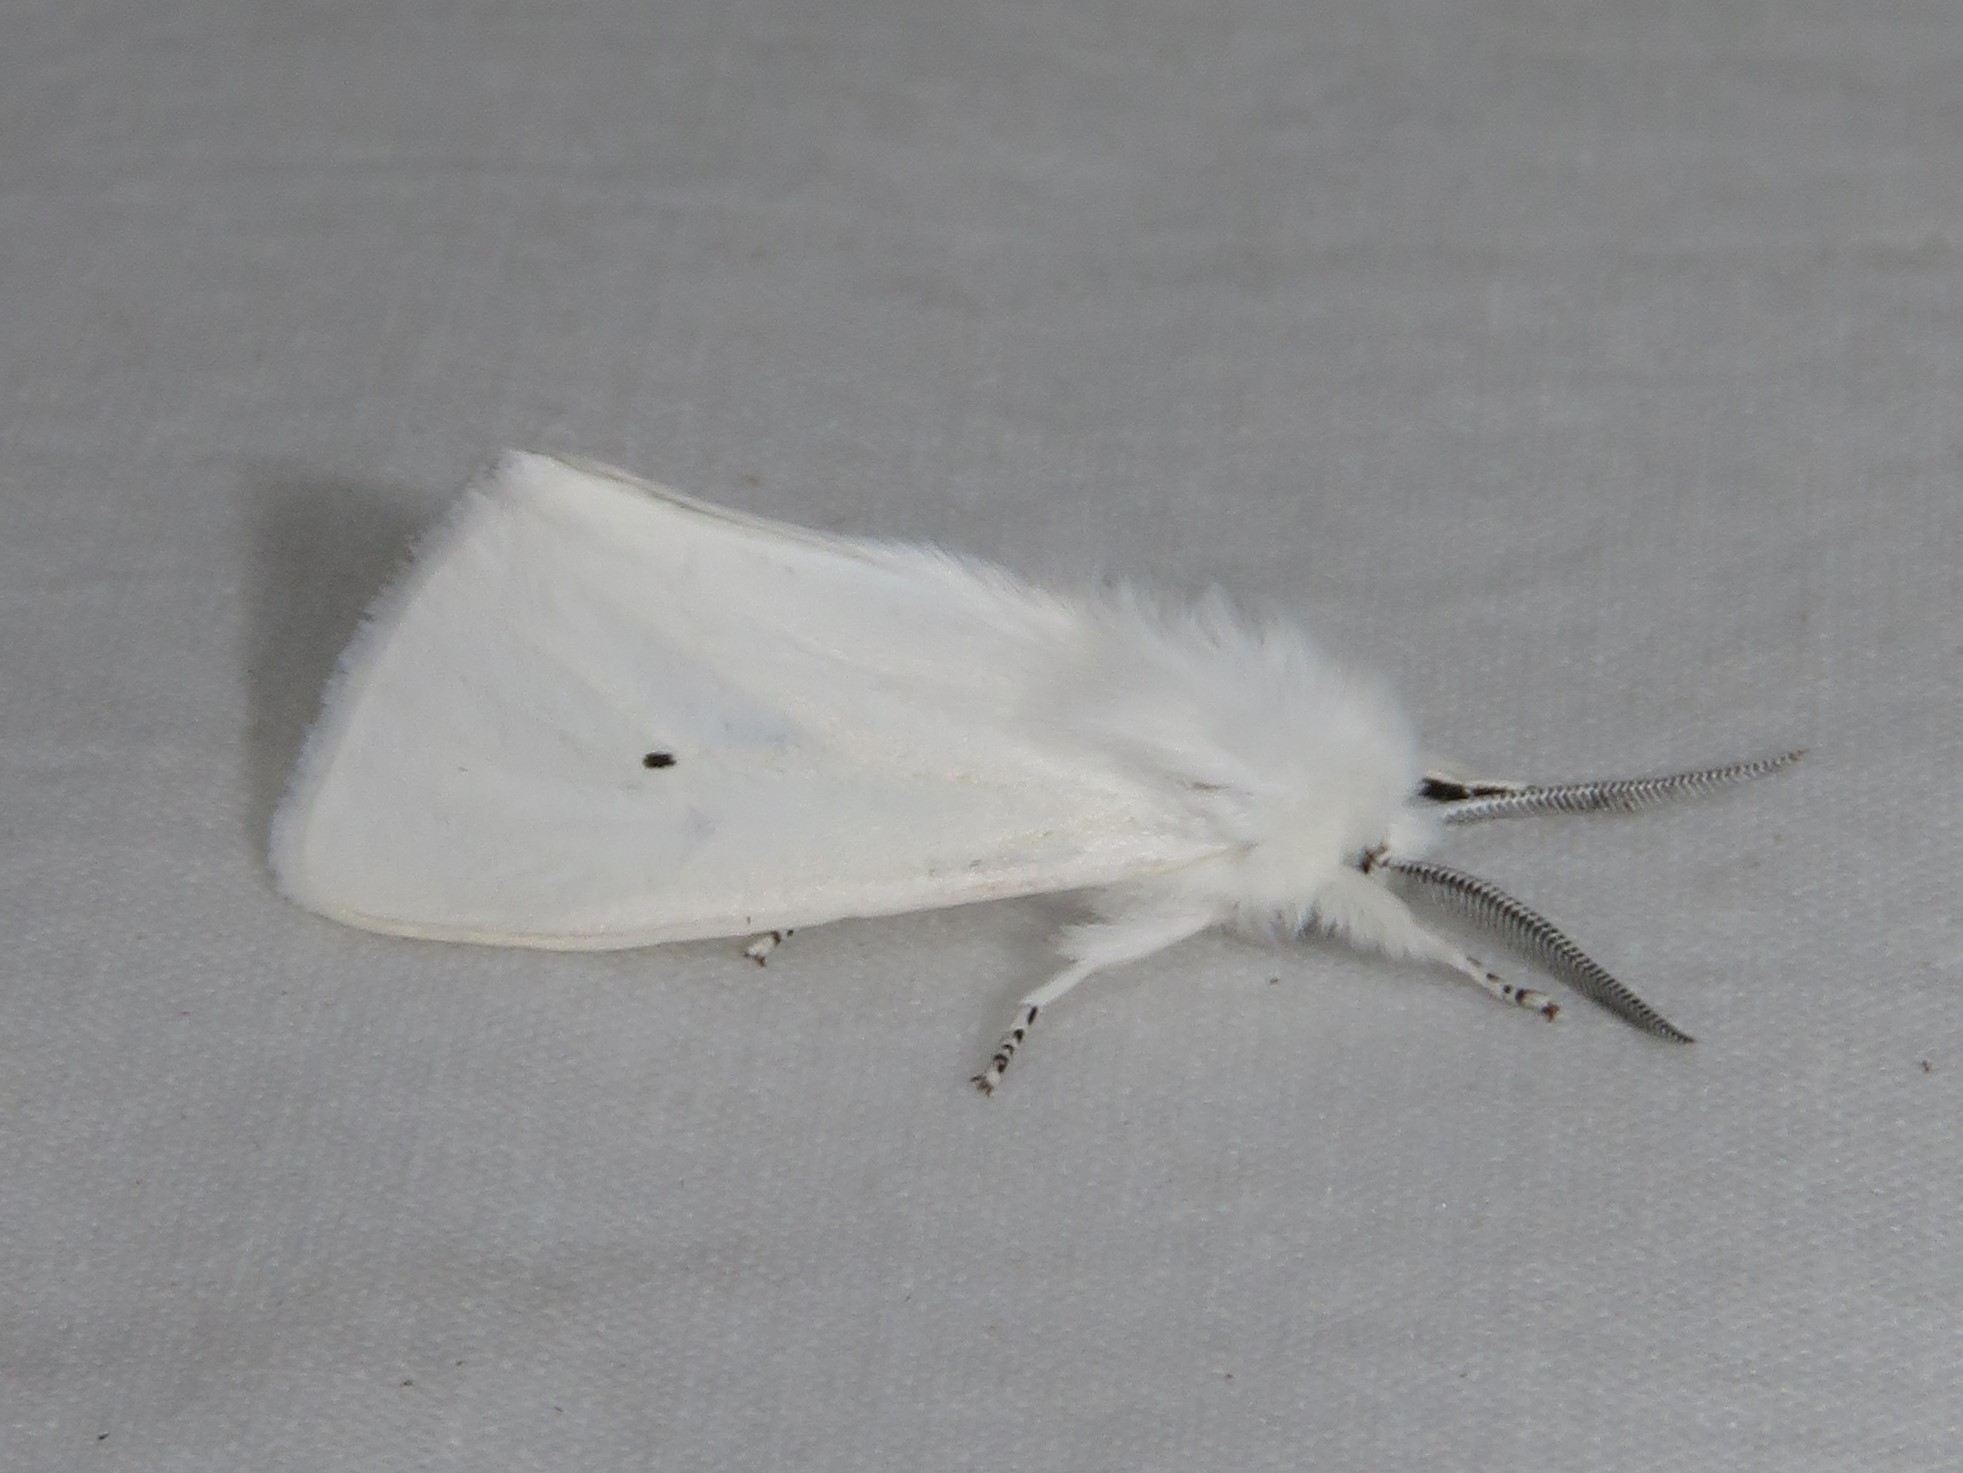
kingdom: Animalia
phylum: Arthropoda
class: Insecta
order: Lepidoptera
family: Erebidae
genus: Spilosoma
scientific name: Spilosoma virginica
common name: Virginia tiger moth
